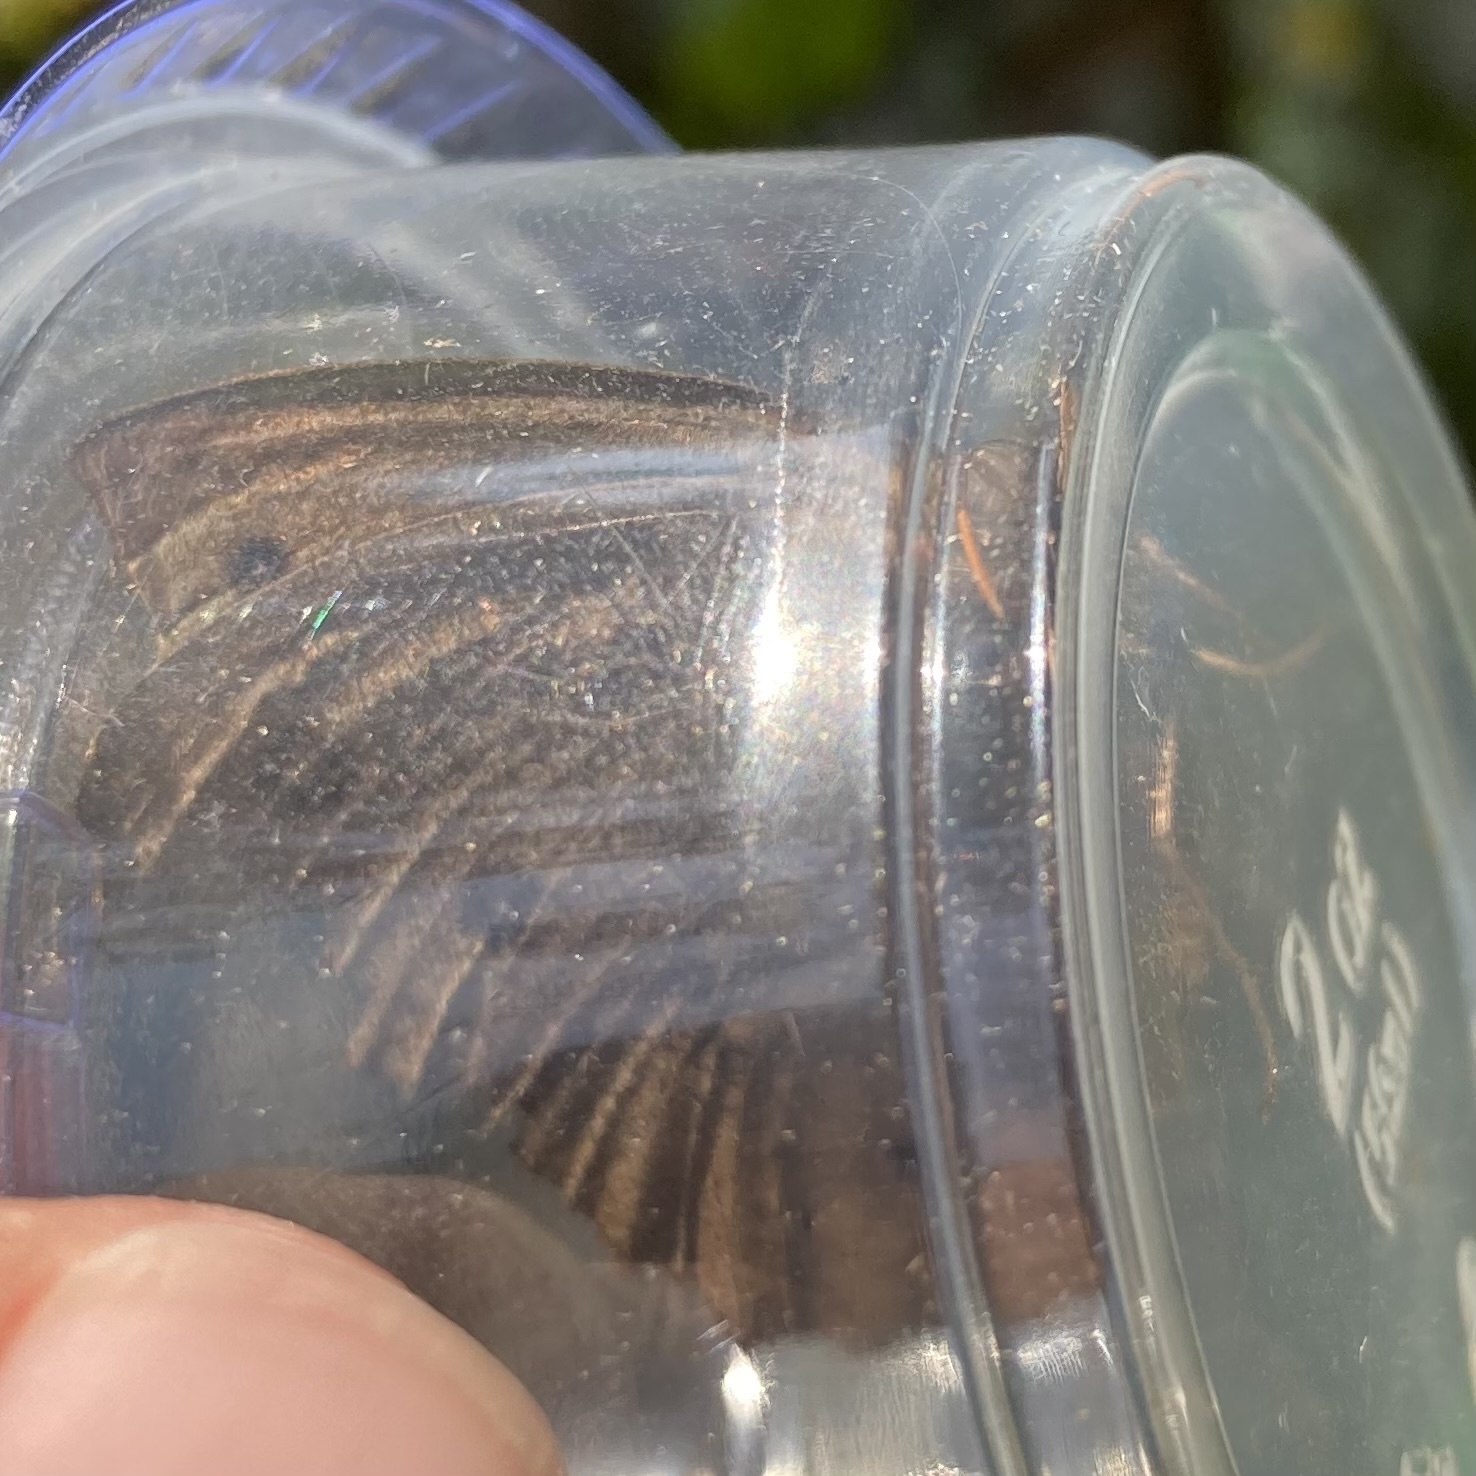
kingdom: Animalia
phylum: Arthropoda
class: Insecta
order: Lepidoptera
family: Nymphalidae
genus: Cercyonis
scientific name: Cercyonis pegala
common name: Common wood-nymph
